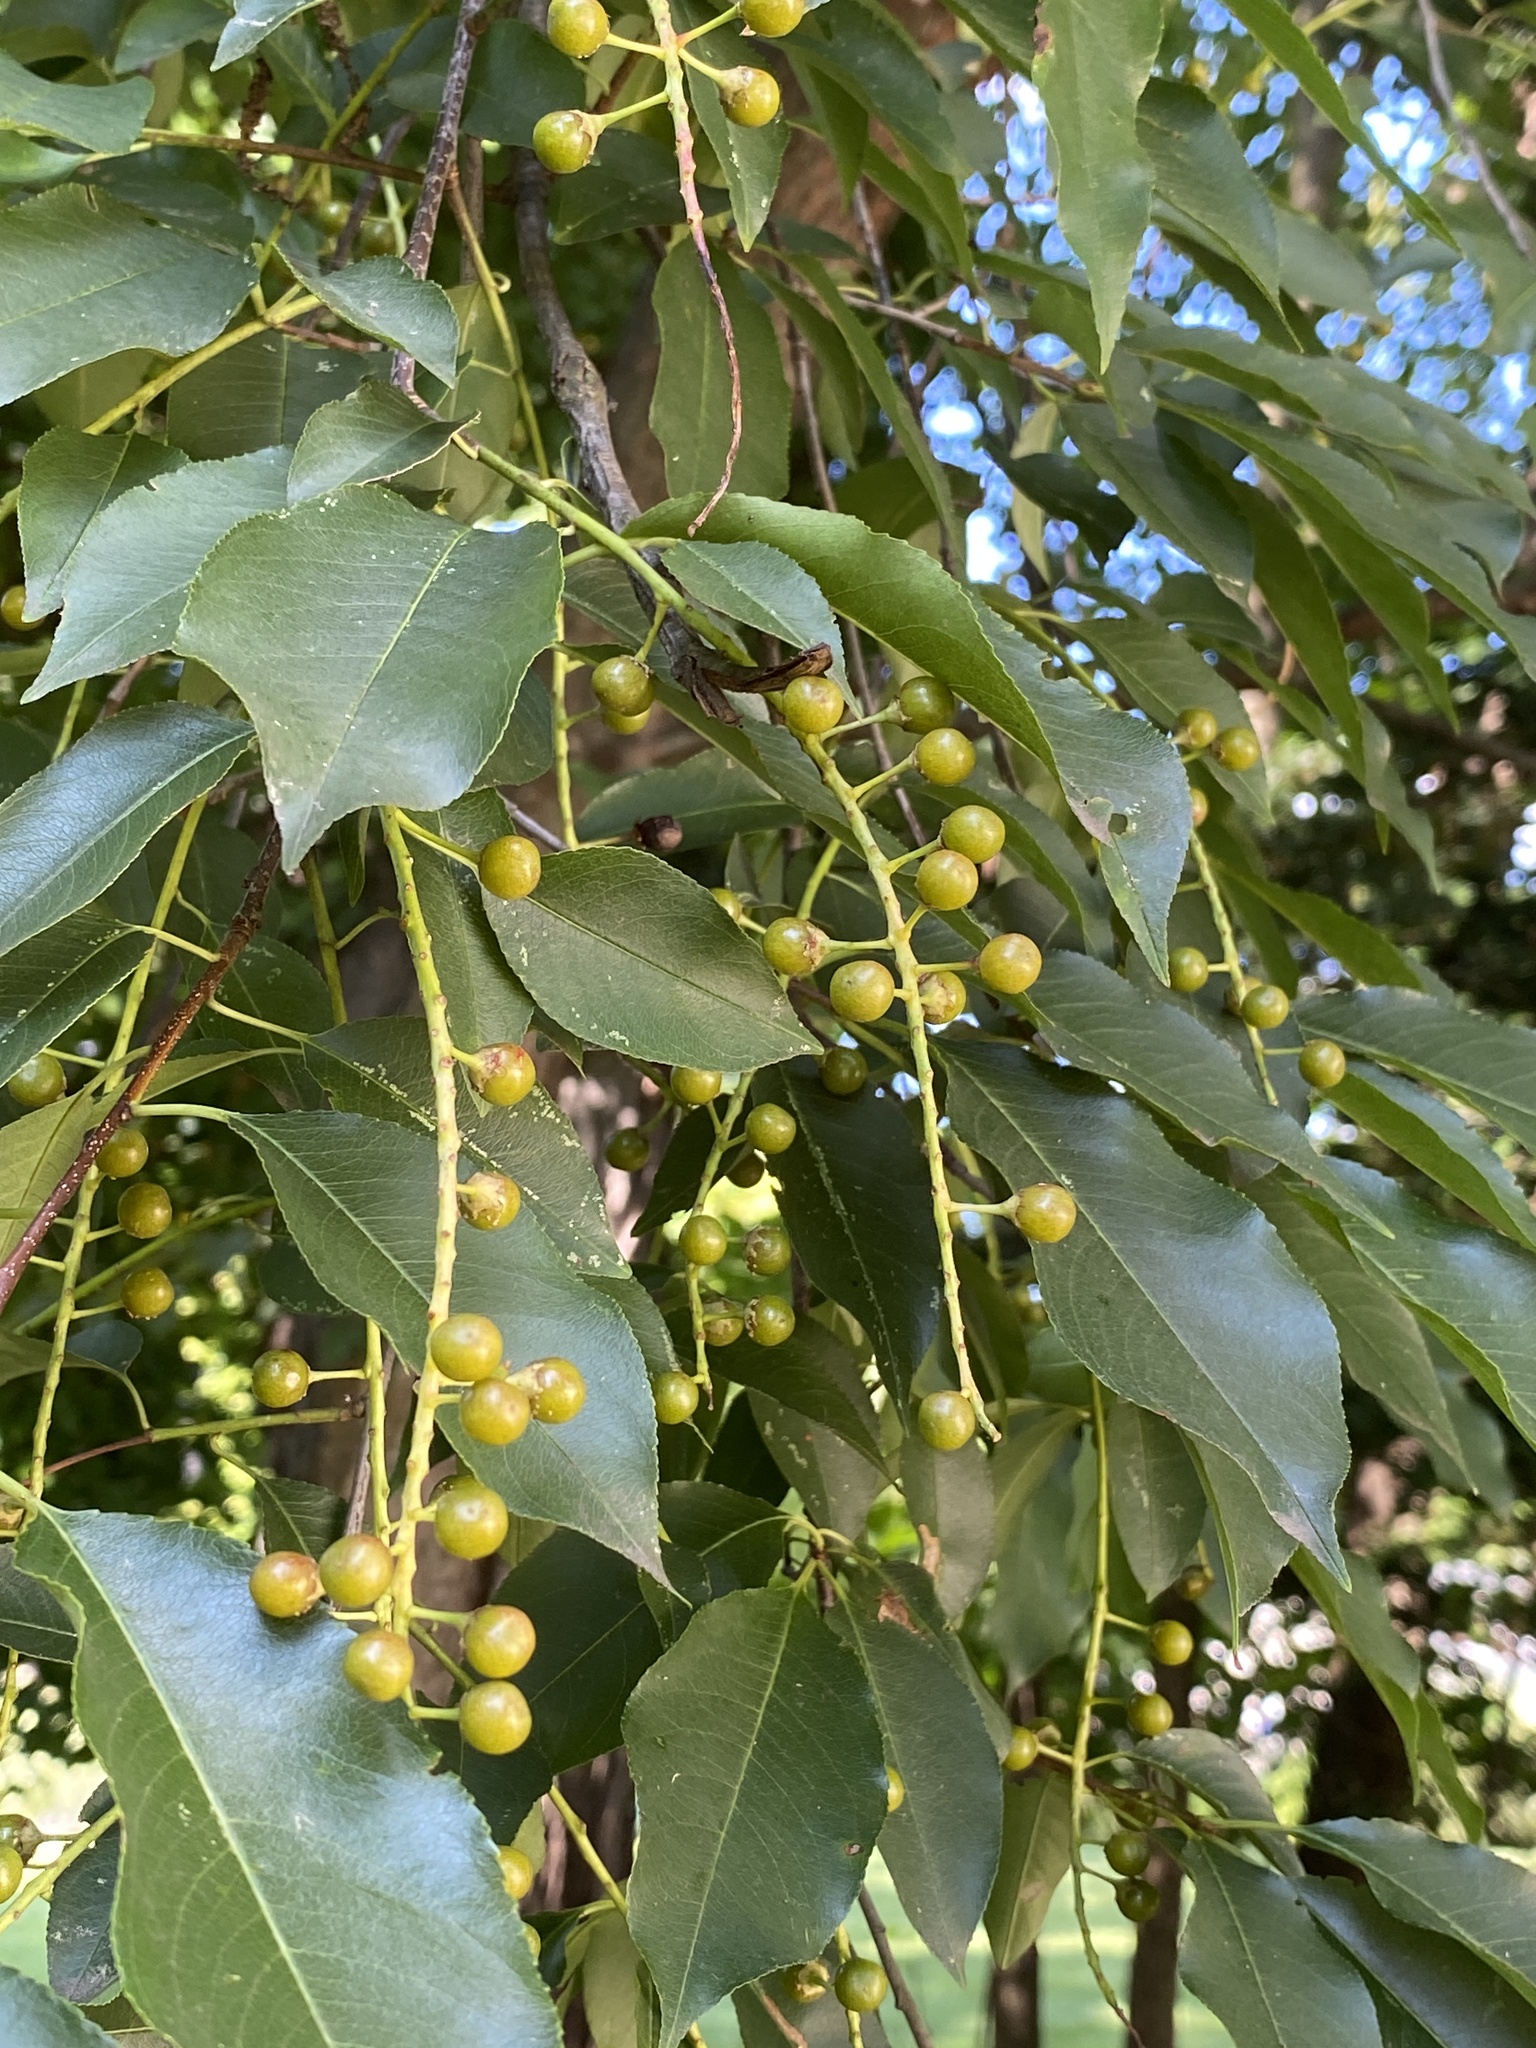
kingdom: Plantae
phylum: Tracheophyta
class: Magnoliopsida
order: Rosales
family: Rosaceae
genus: Prunus
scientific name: Prunus serotina
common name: Black cherry
